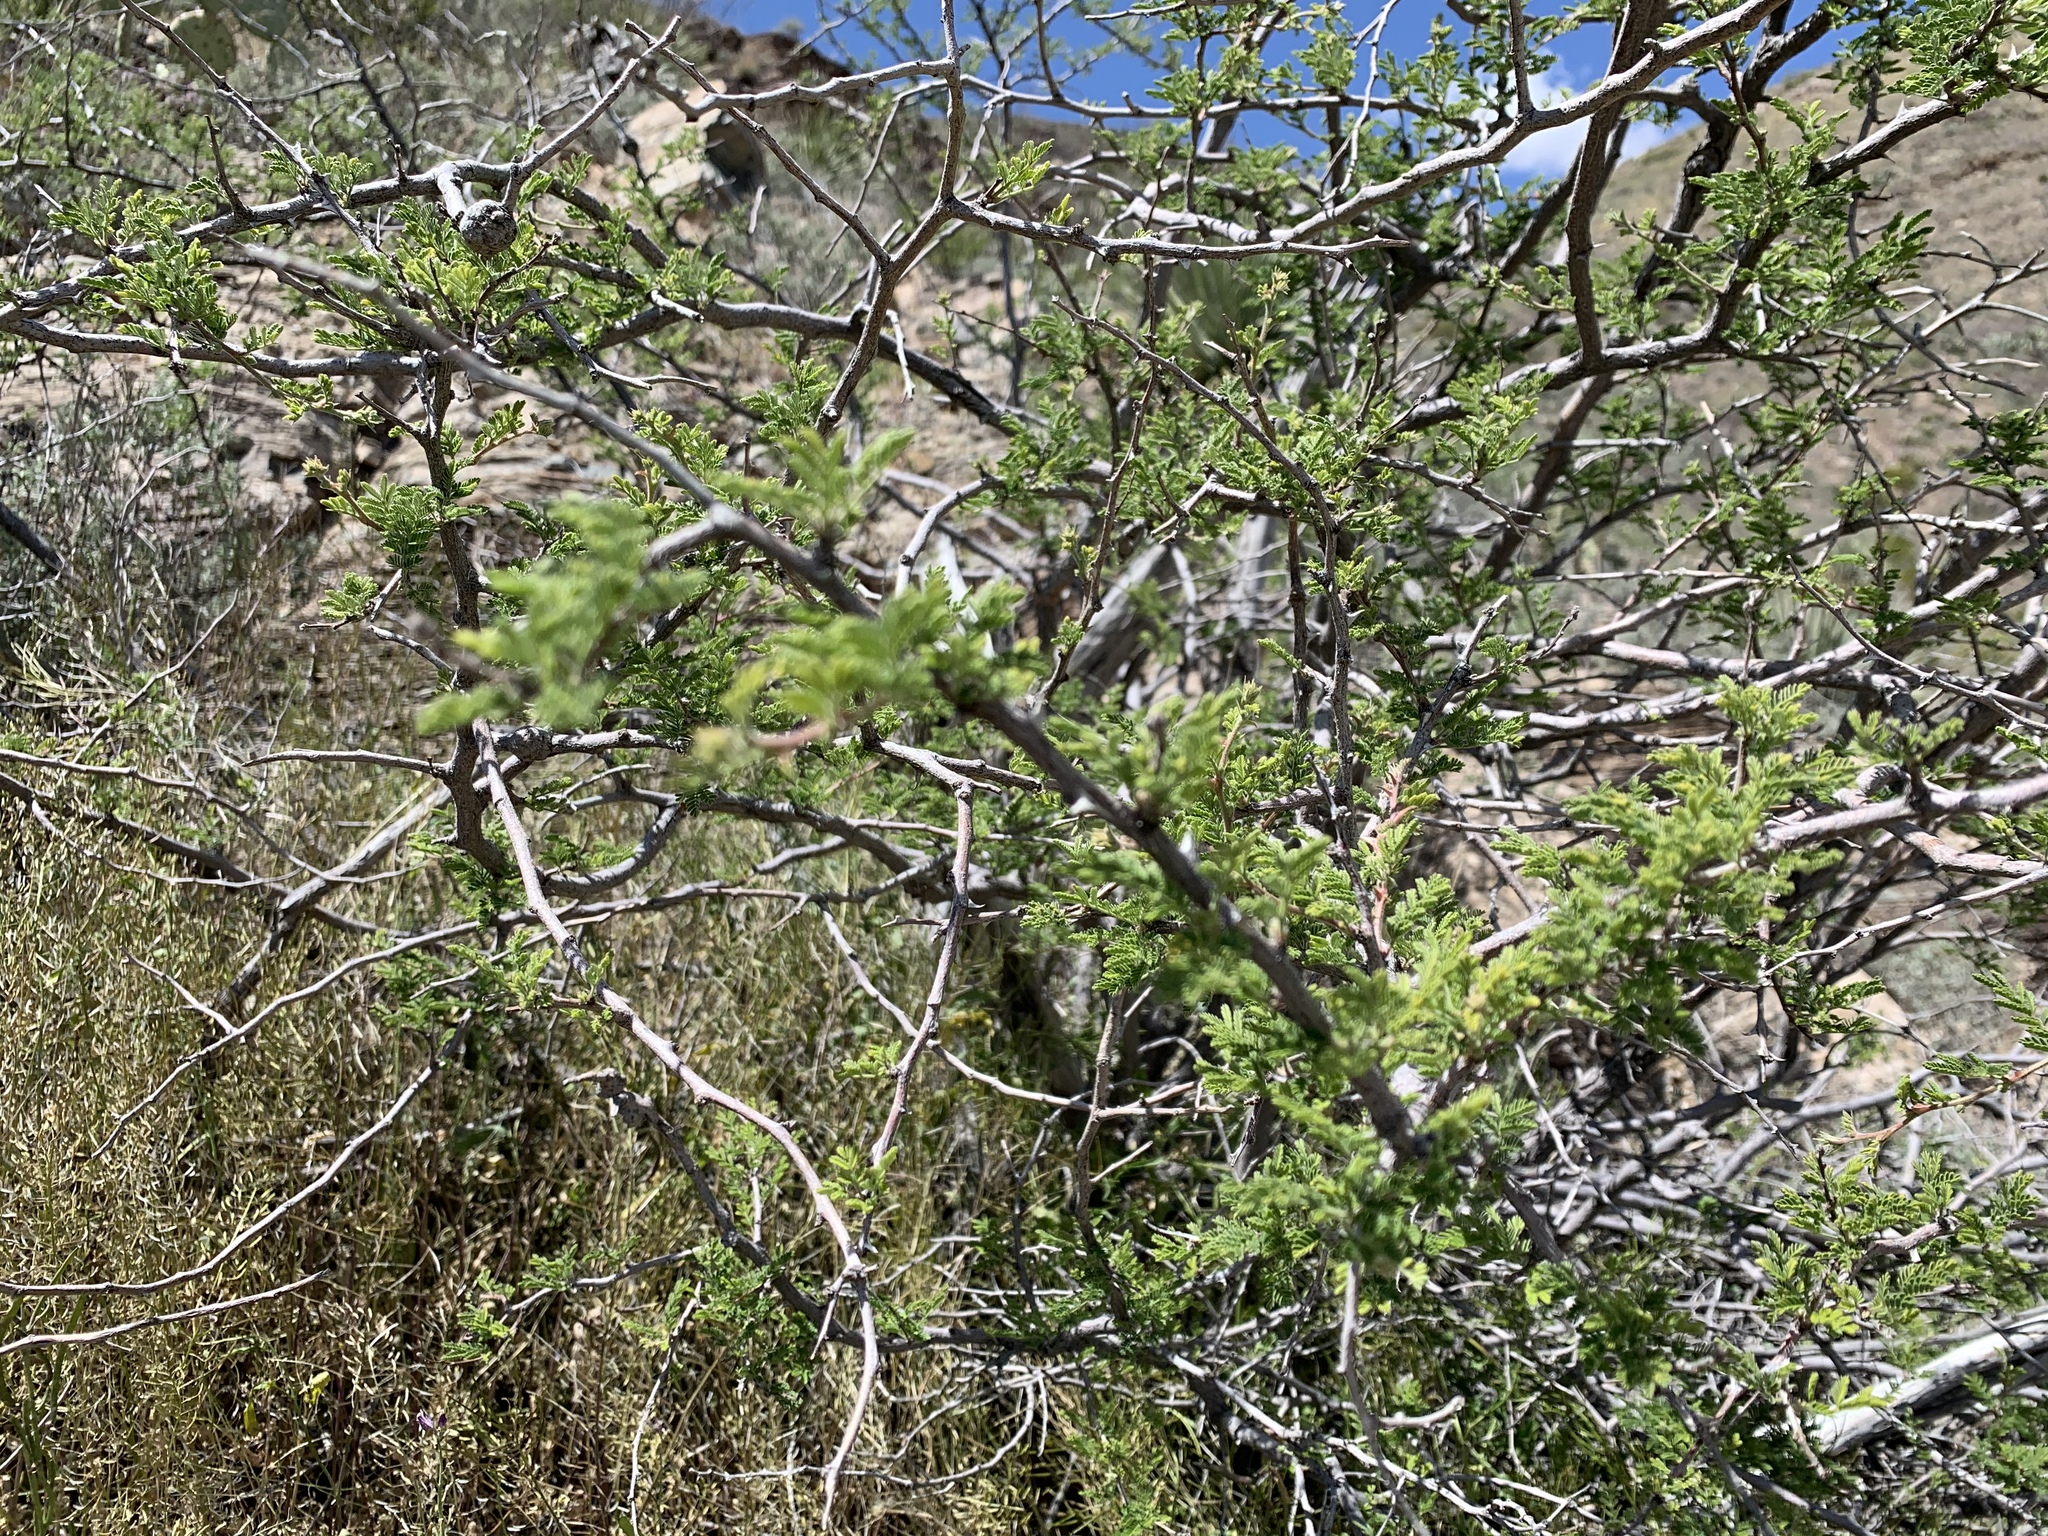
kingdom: Plantae
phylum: Tracheophyta
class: Magnoliopsida
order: Fabales
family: Fabaceae
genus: Mimosa
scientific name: Mimosa aculeaticarpa
